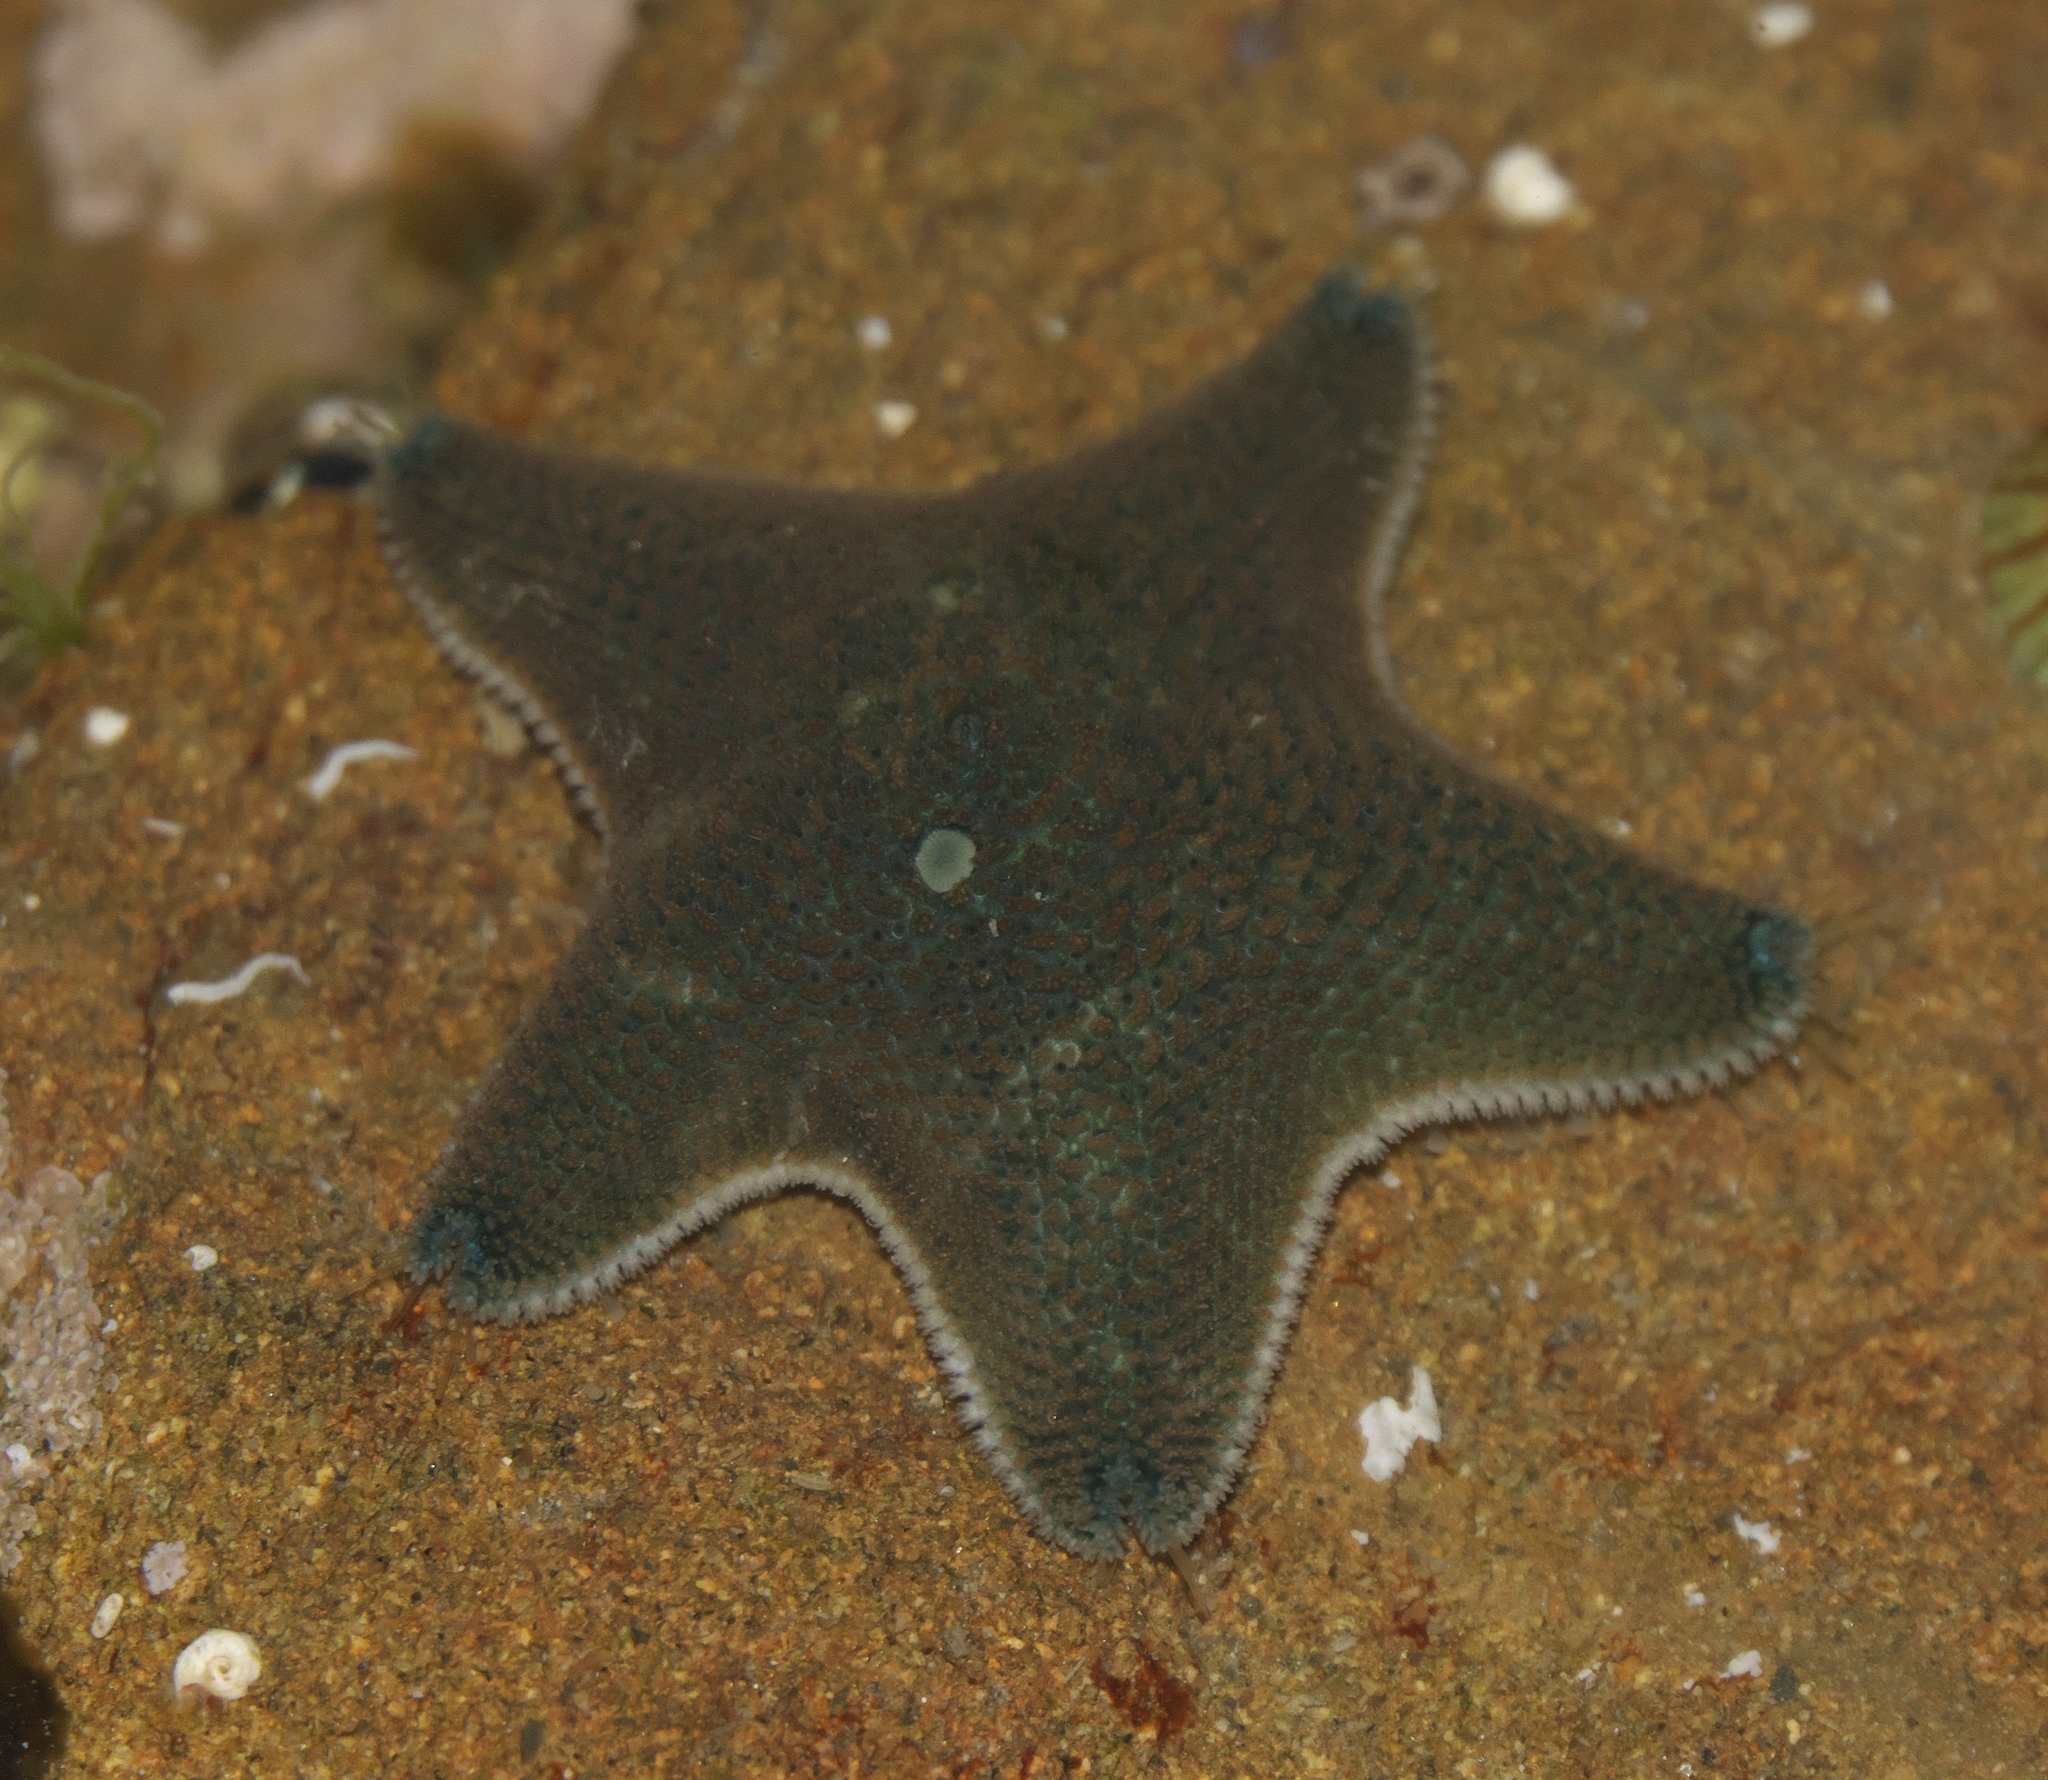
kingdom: Animalia
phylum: Echinodermata
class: Asteroidea
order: Valvatida
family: Asterinidae
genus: Patiriella
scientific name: Patiriella regularis
